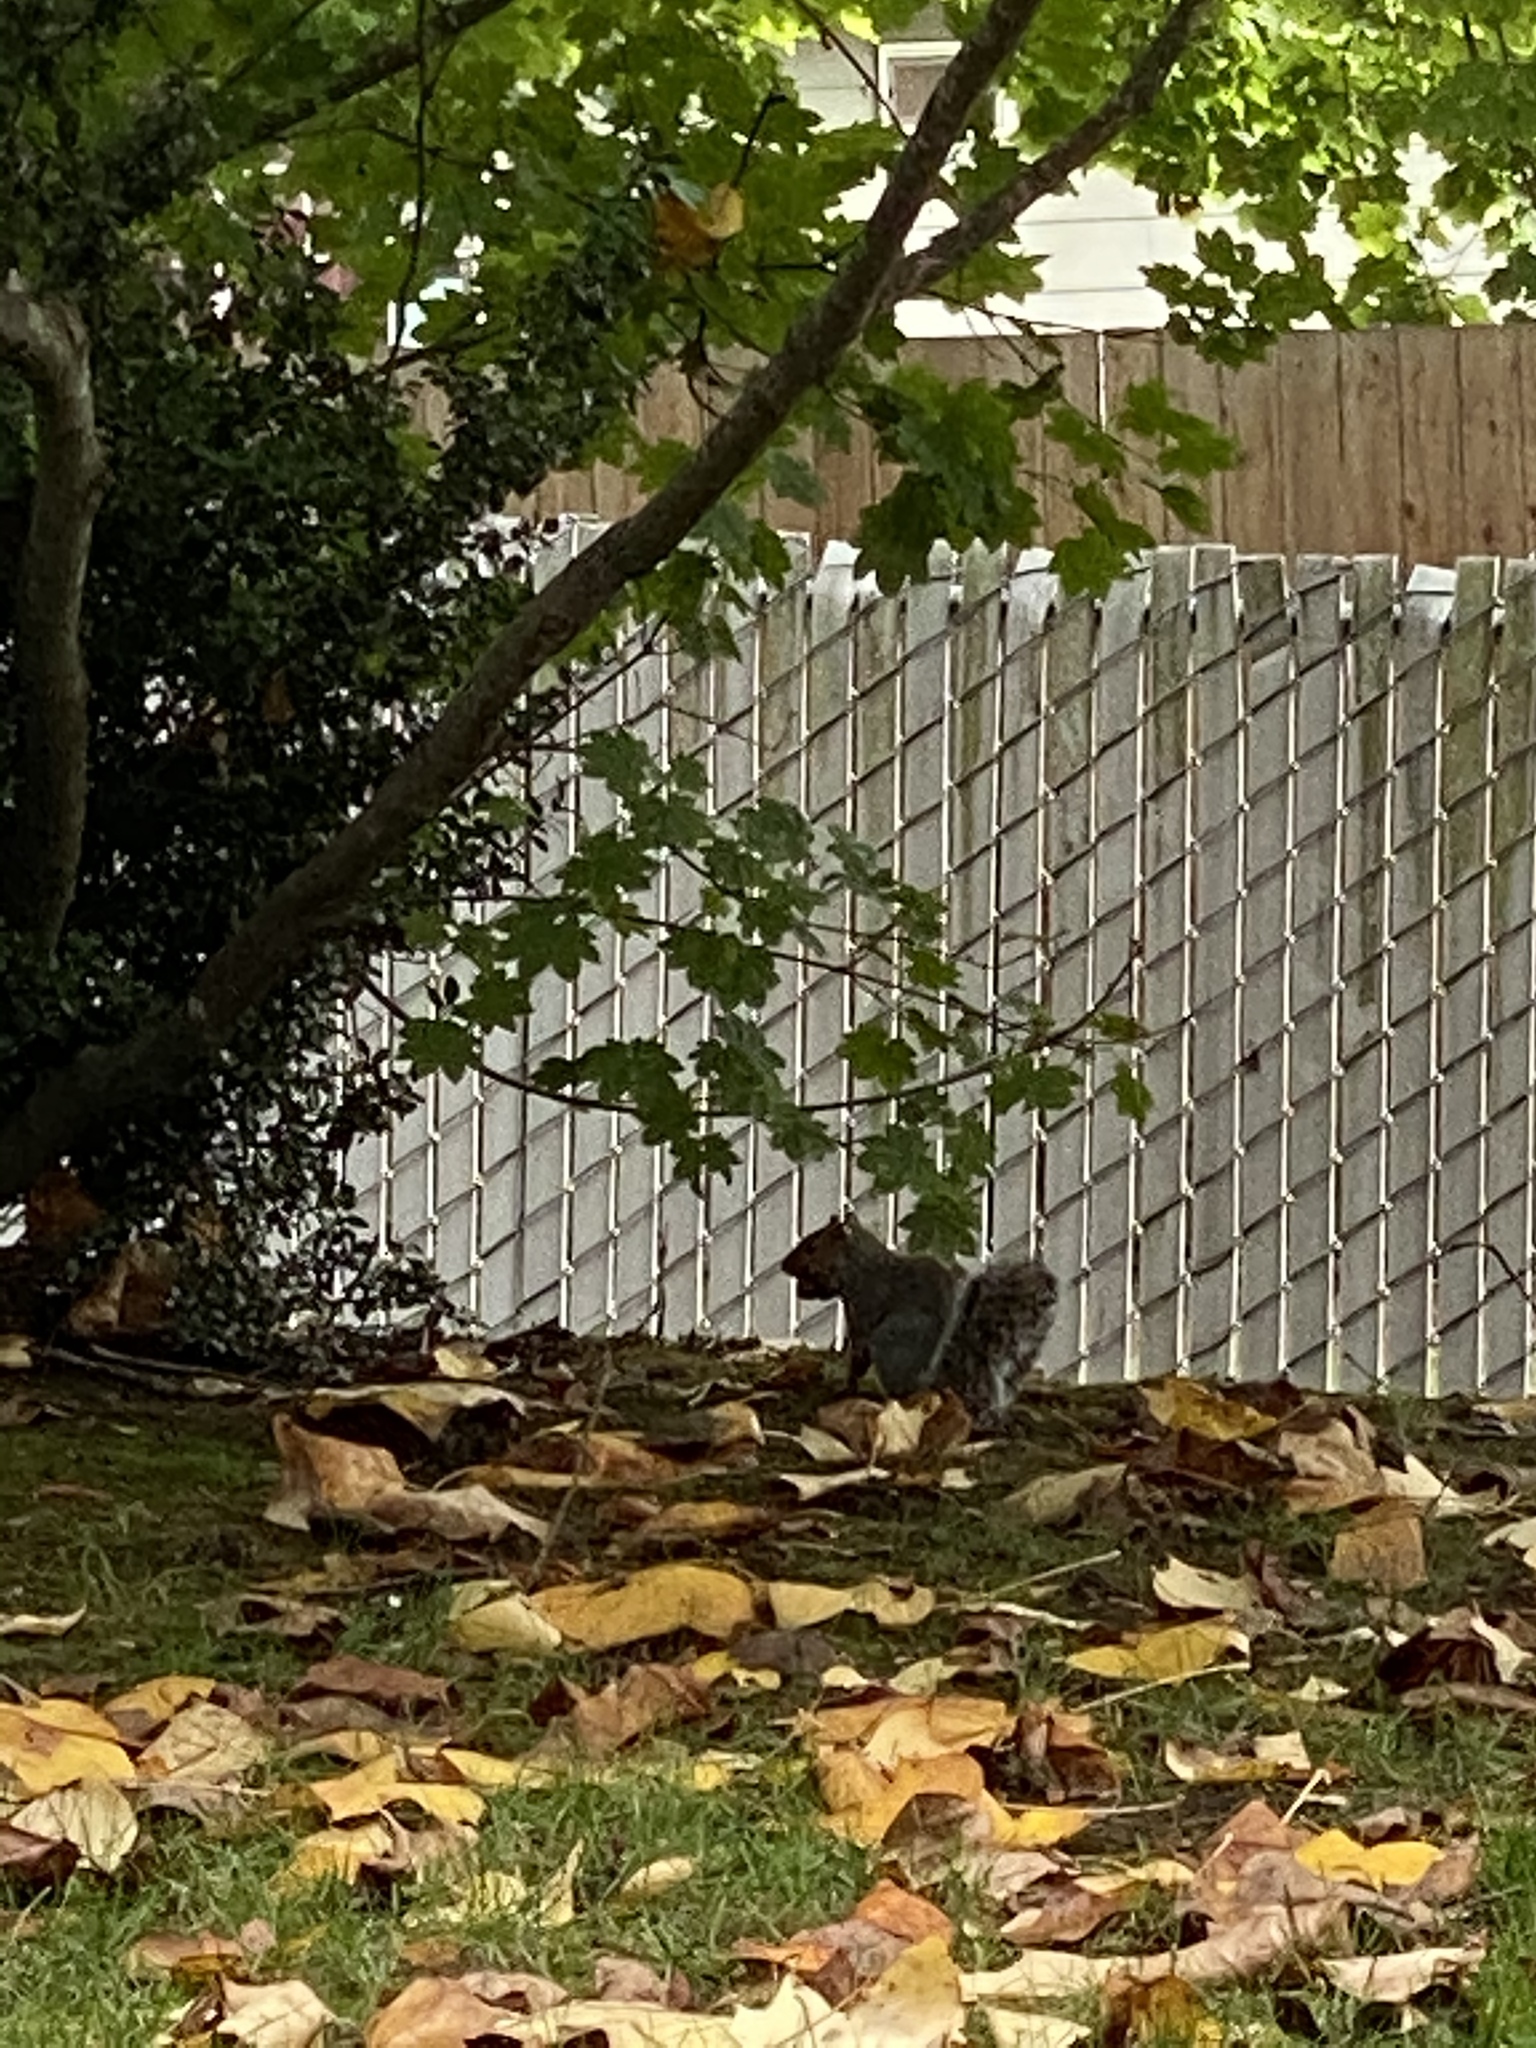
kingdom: Animalia
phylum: Chordata
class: Mammalia
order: Rodentia
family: Sciuridae
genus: Sciurus
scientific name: Sciurus carolinensis
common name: Eastern gray squirrel
